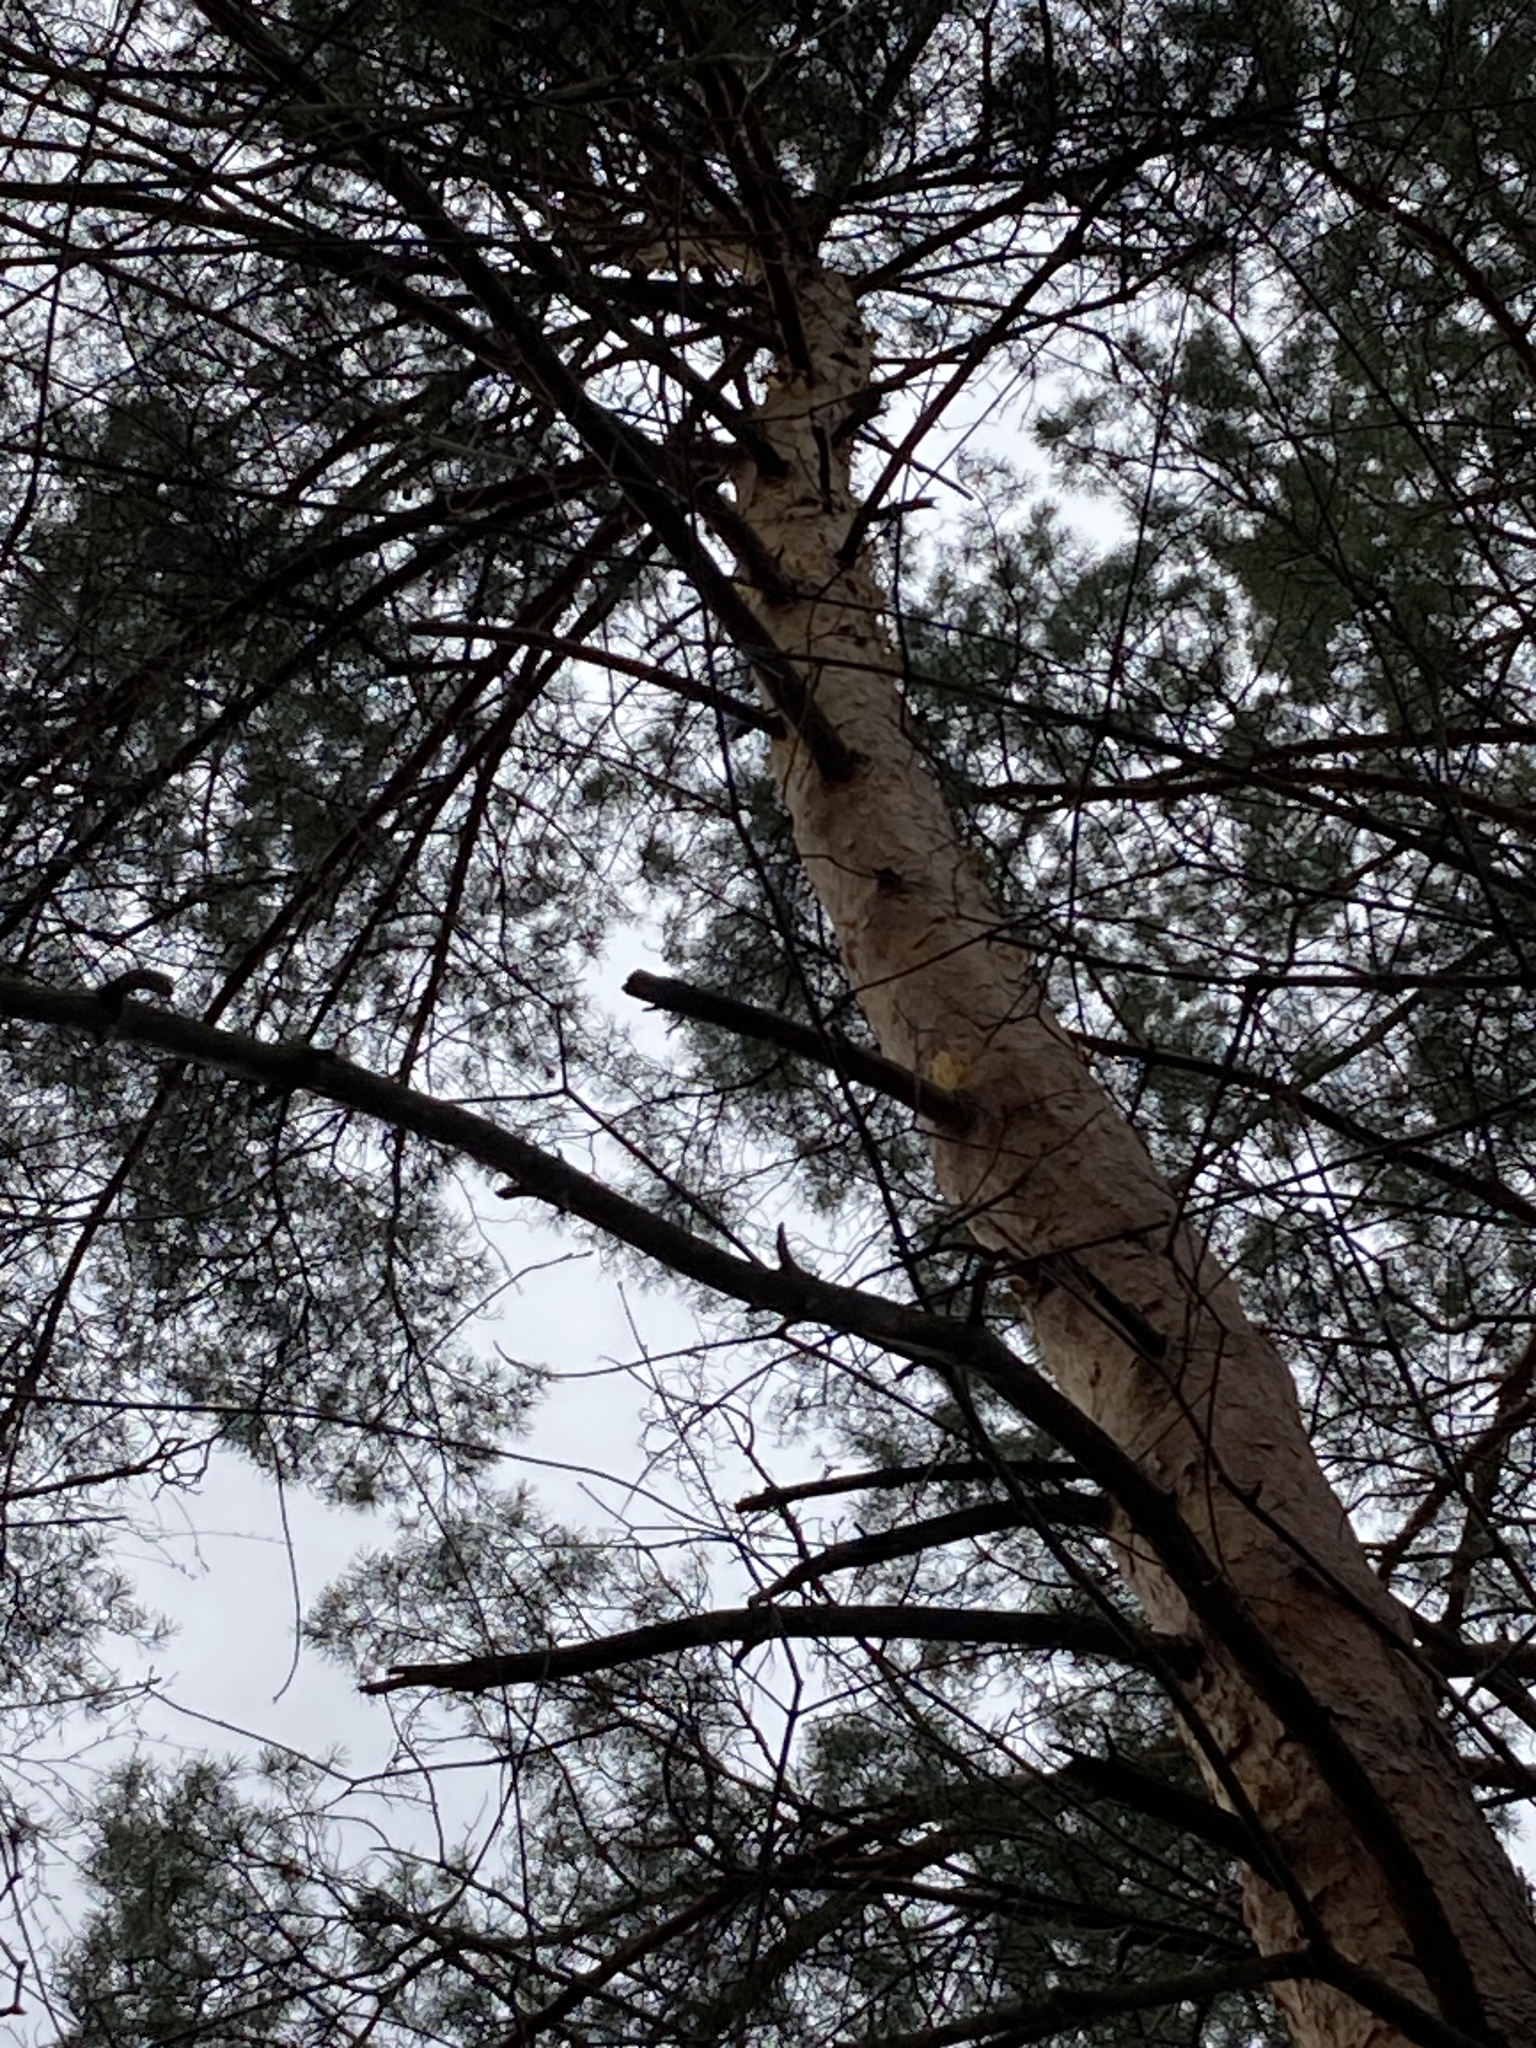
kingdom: Plantae
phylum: Tracheophyta
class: Pinopsida
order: Pinales
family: Pinaceae
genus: Pinus
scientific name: Pinus sylvestris
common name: Scots pine
